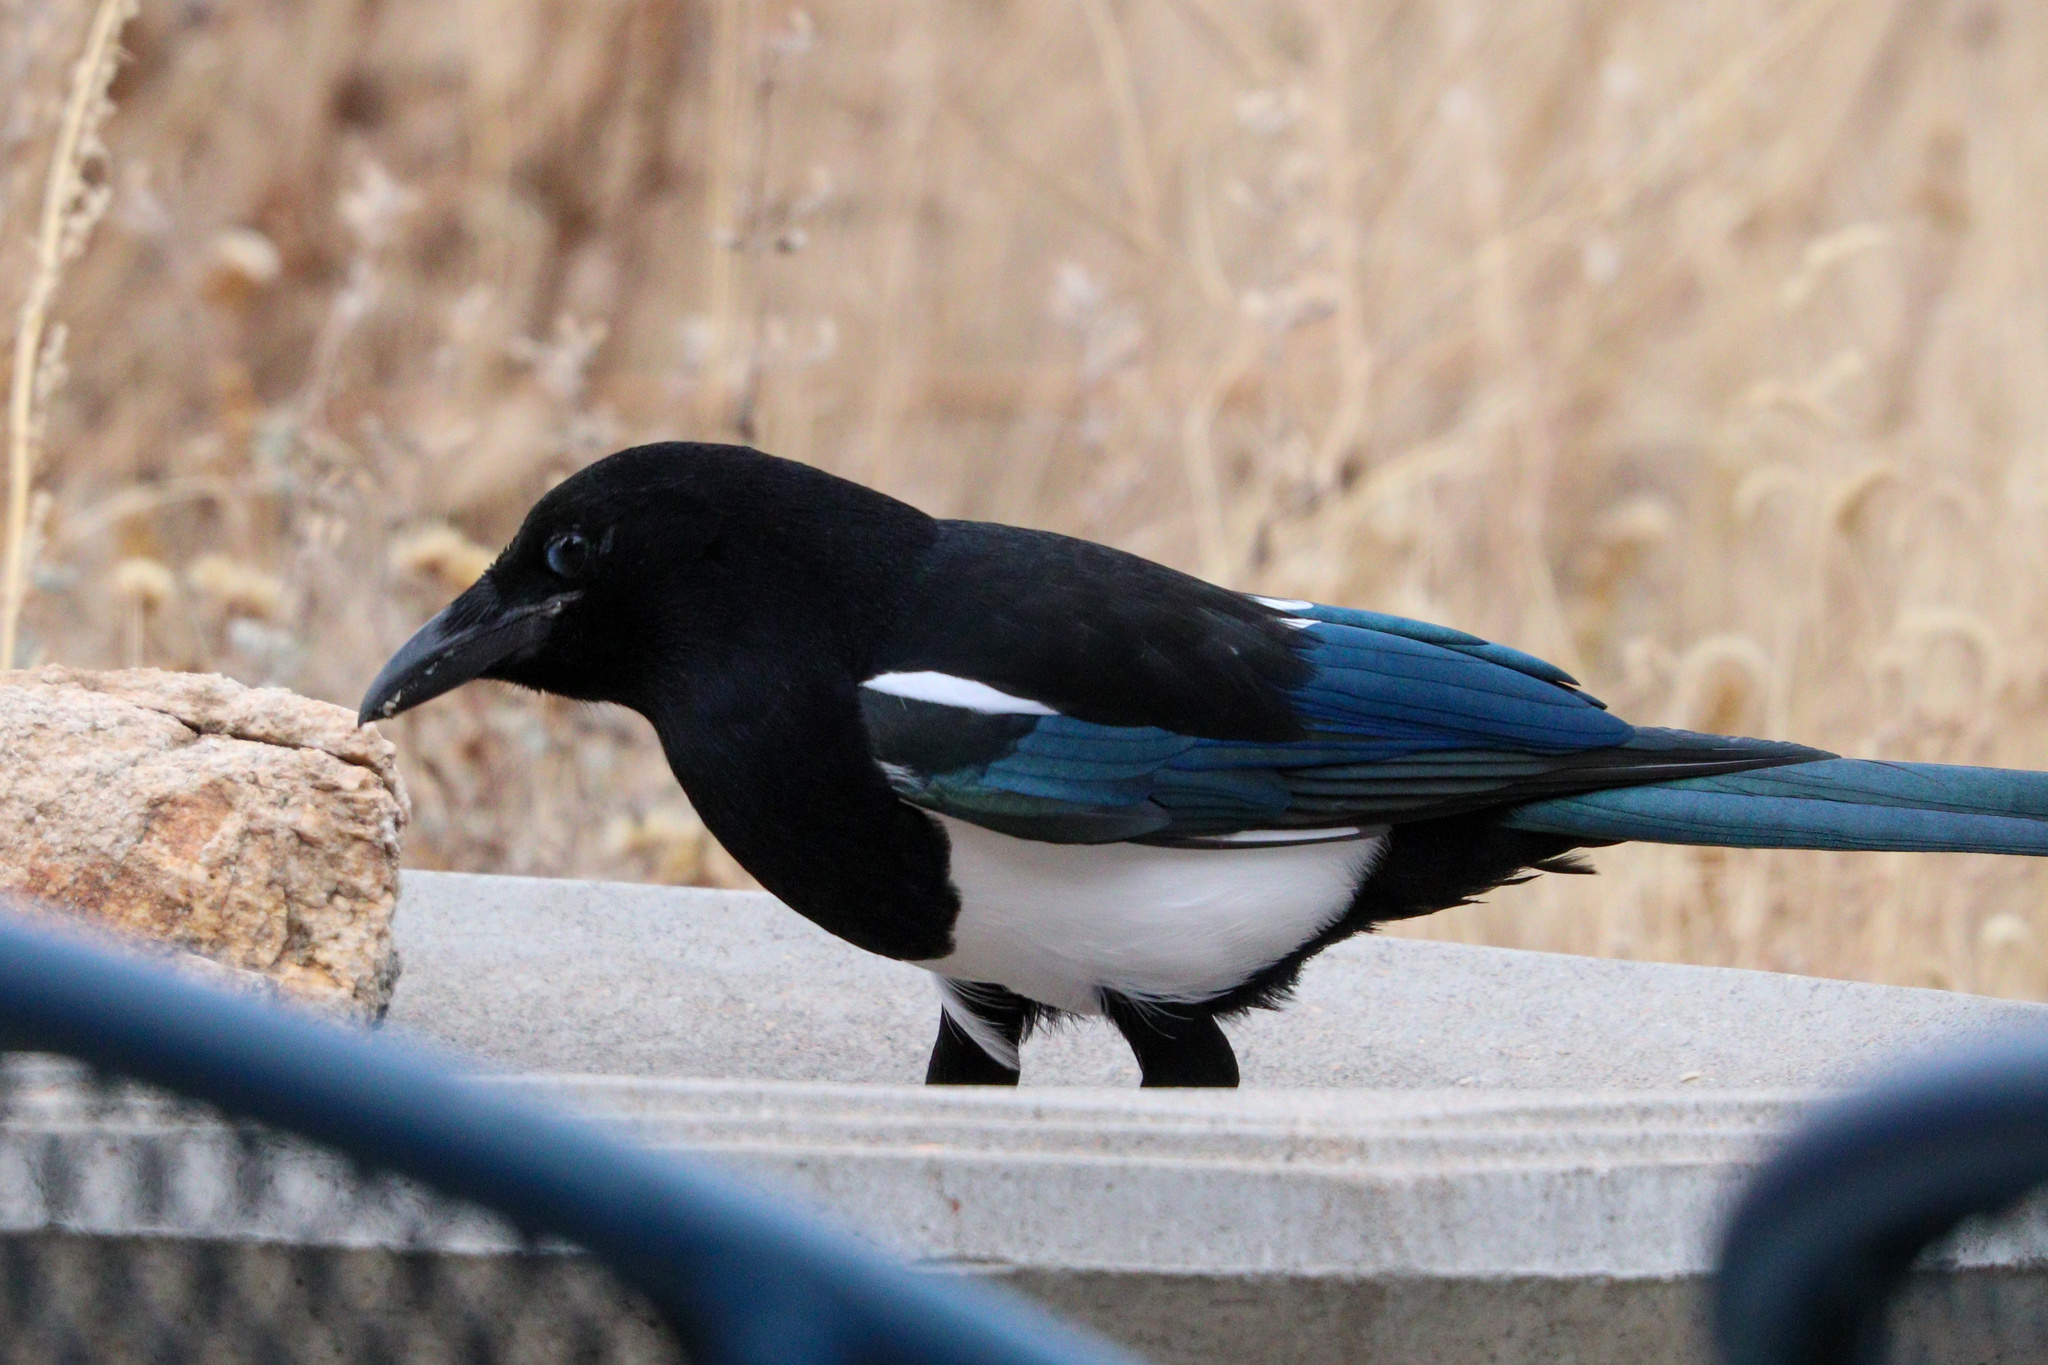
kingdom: Animalia
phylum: Chordata
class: Aves
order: Passeriformes
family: Corvidae
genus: Pica
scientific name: Pica hudsonia
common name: Black-billed magpie
